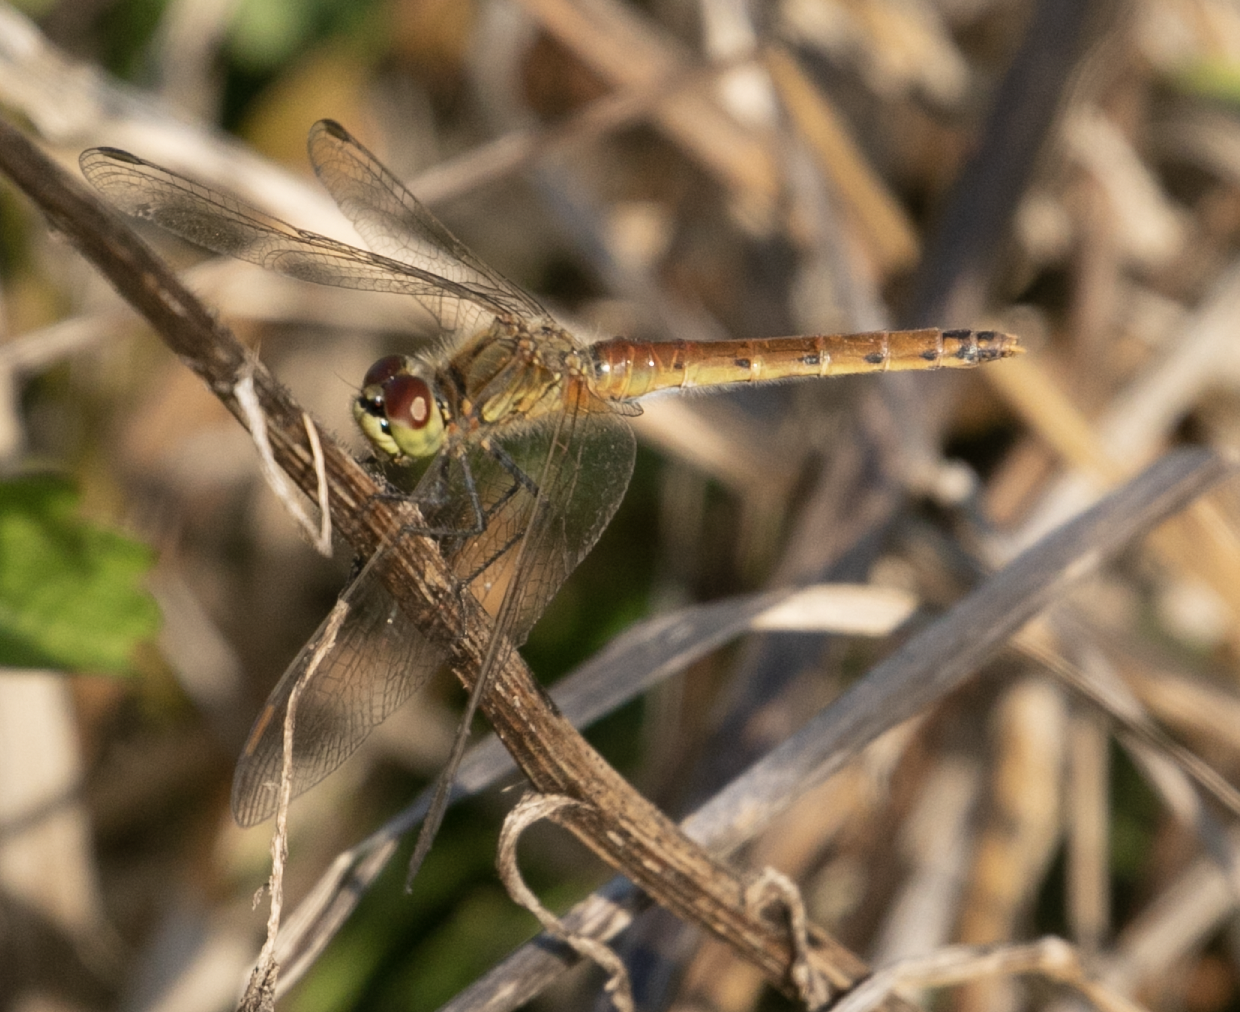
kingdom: Animalia
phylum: Arthropoda
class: Insecta
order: Odonata
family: Libellulidae
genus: Sympetrum
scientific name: Sympetrum depressiusculum
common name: Spotted darter
